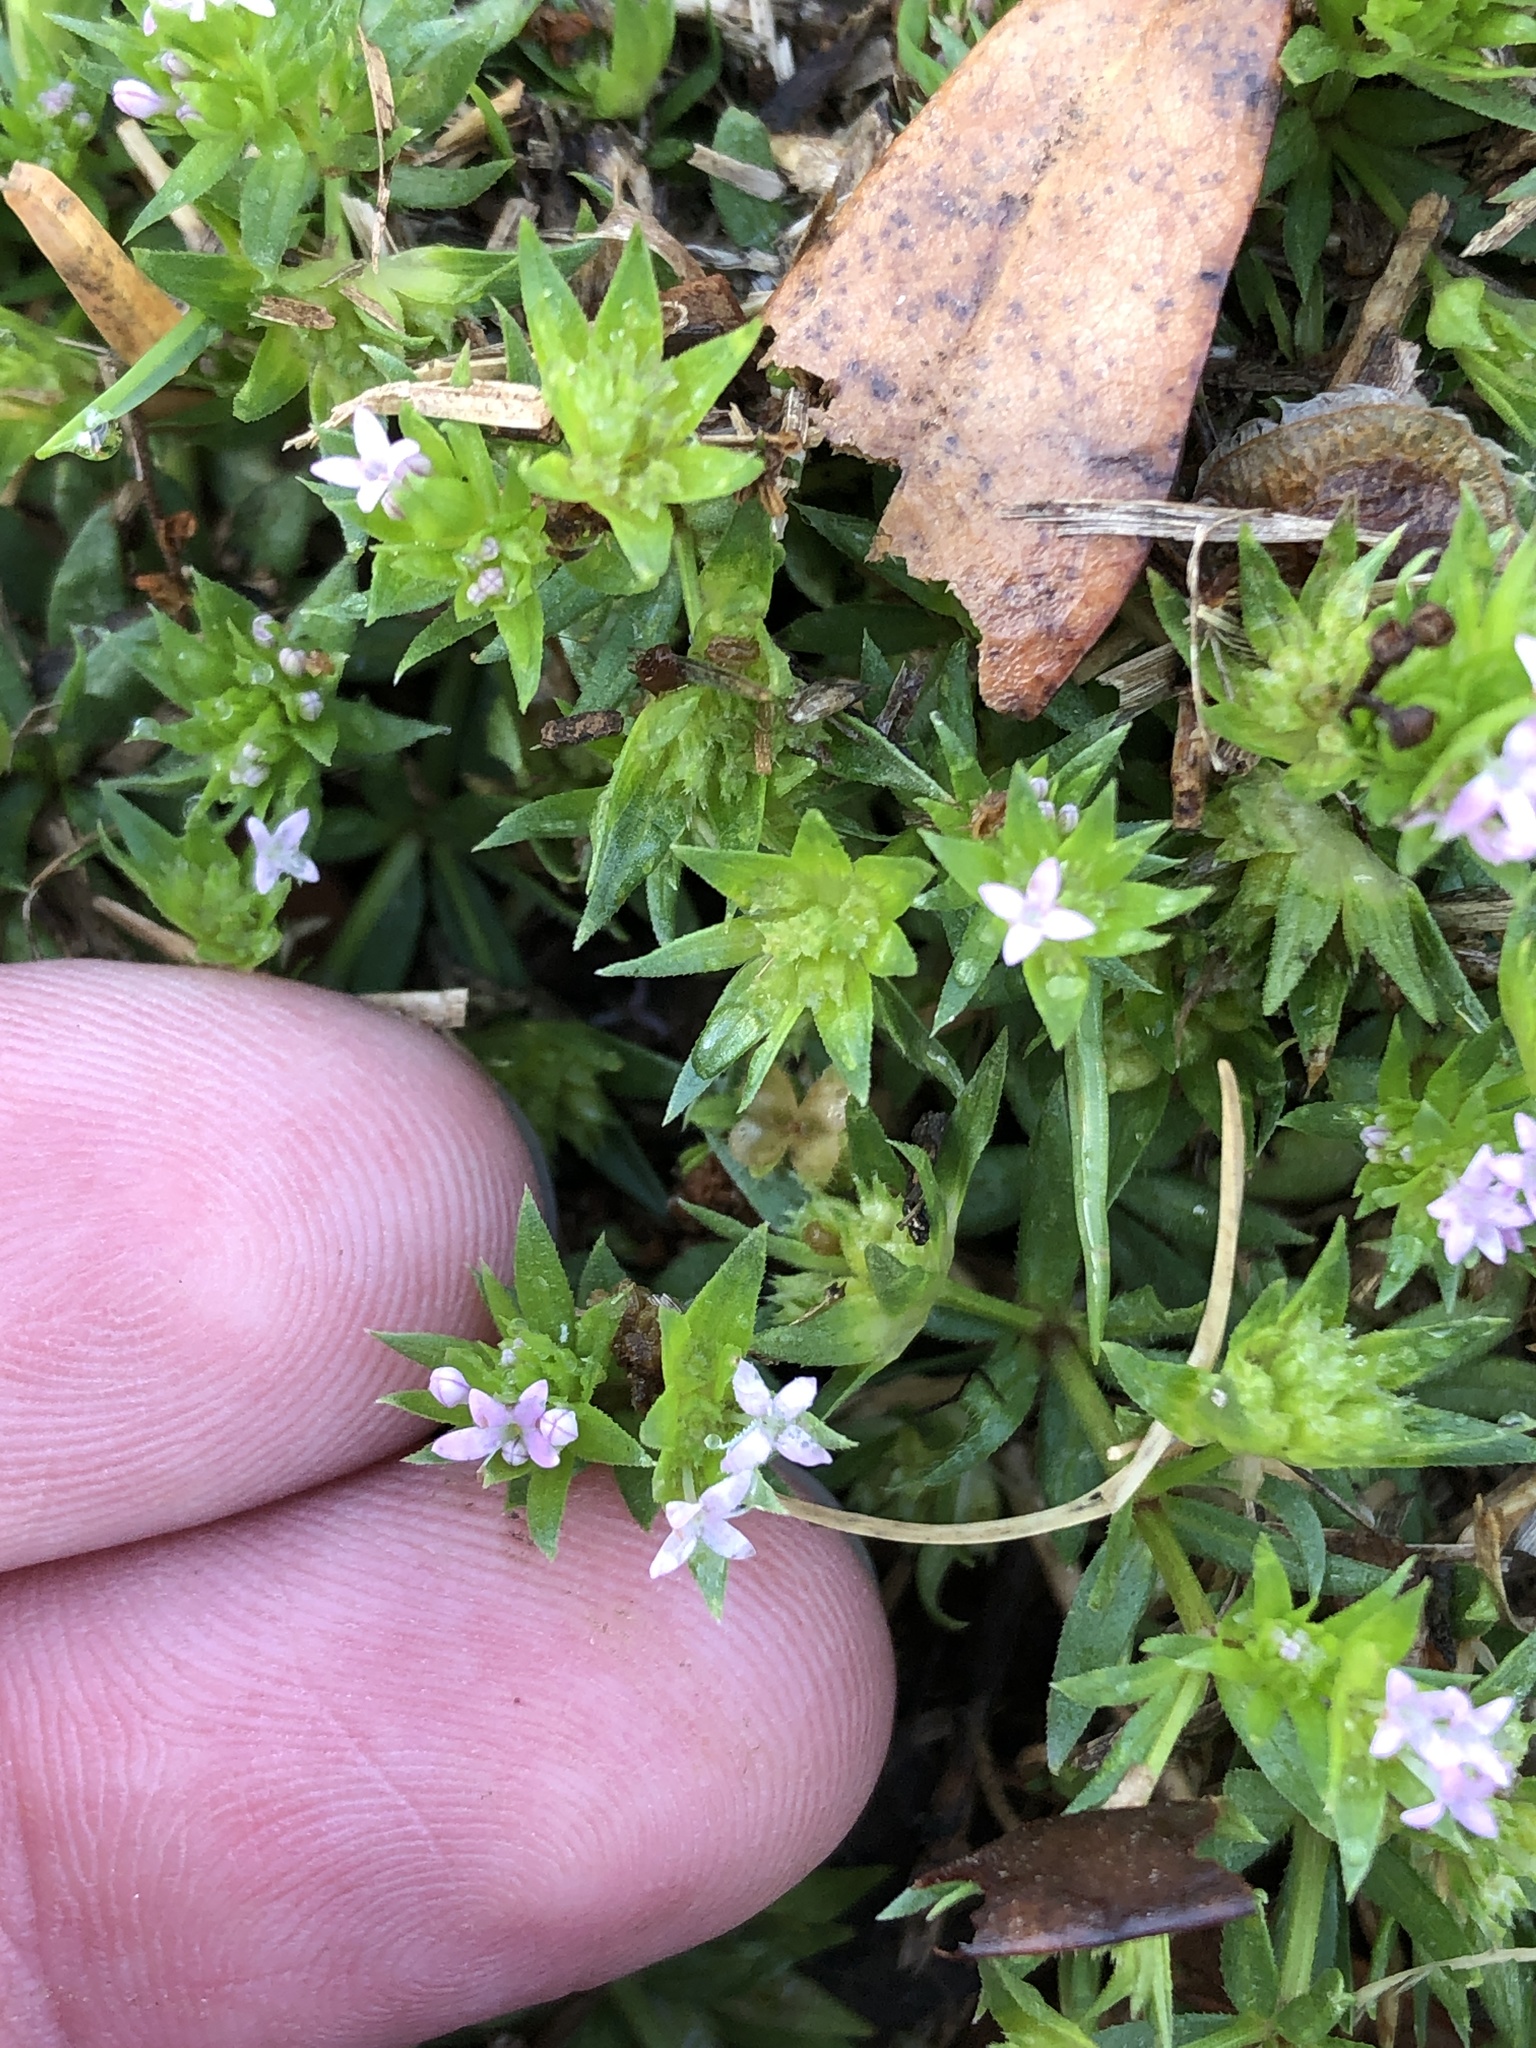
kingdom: Plantae
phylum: Tracheophyta
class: Magnoliopsida
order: Gentianales
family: Rubiaceae
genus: Sherardia
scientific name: Sherardia arvensis
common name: Field madder
